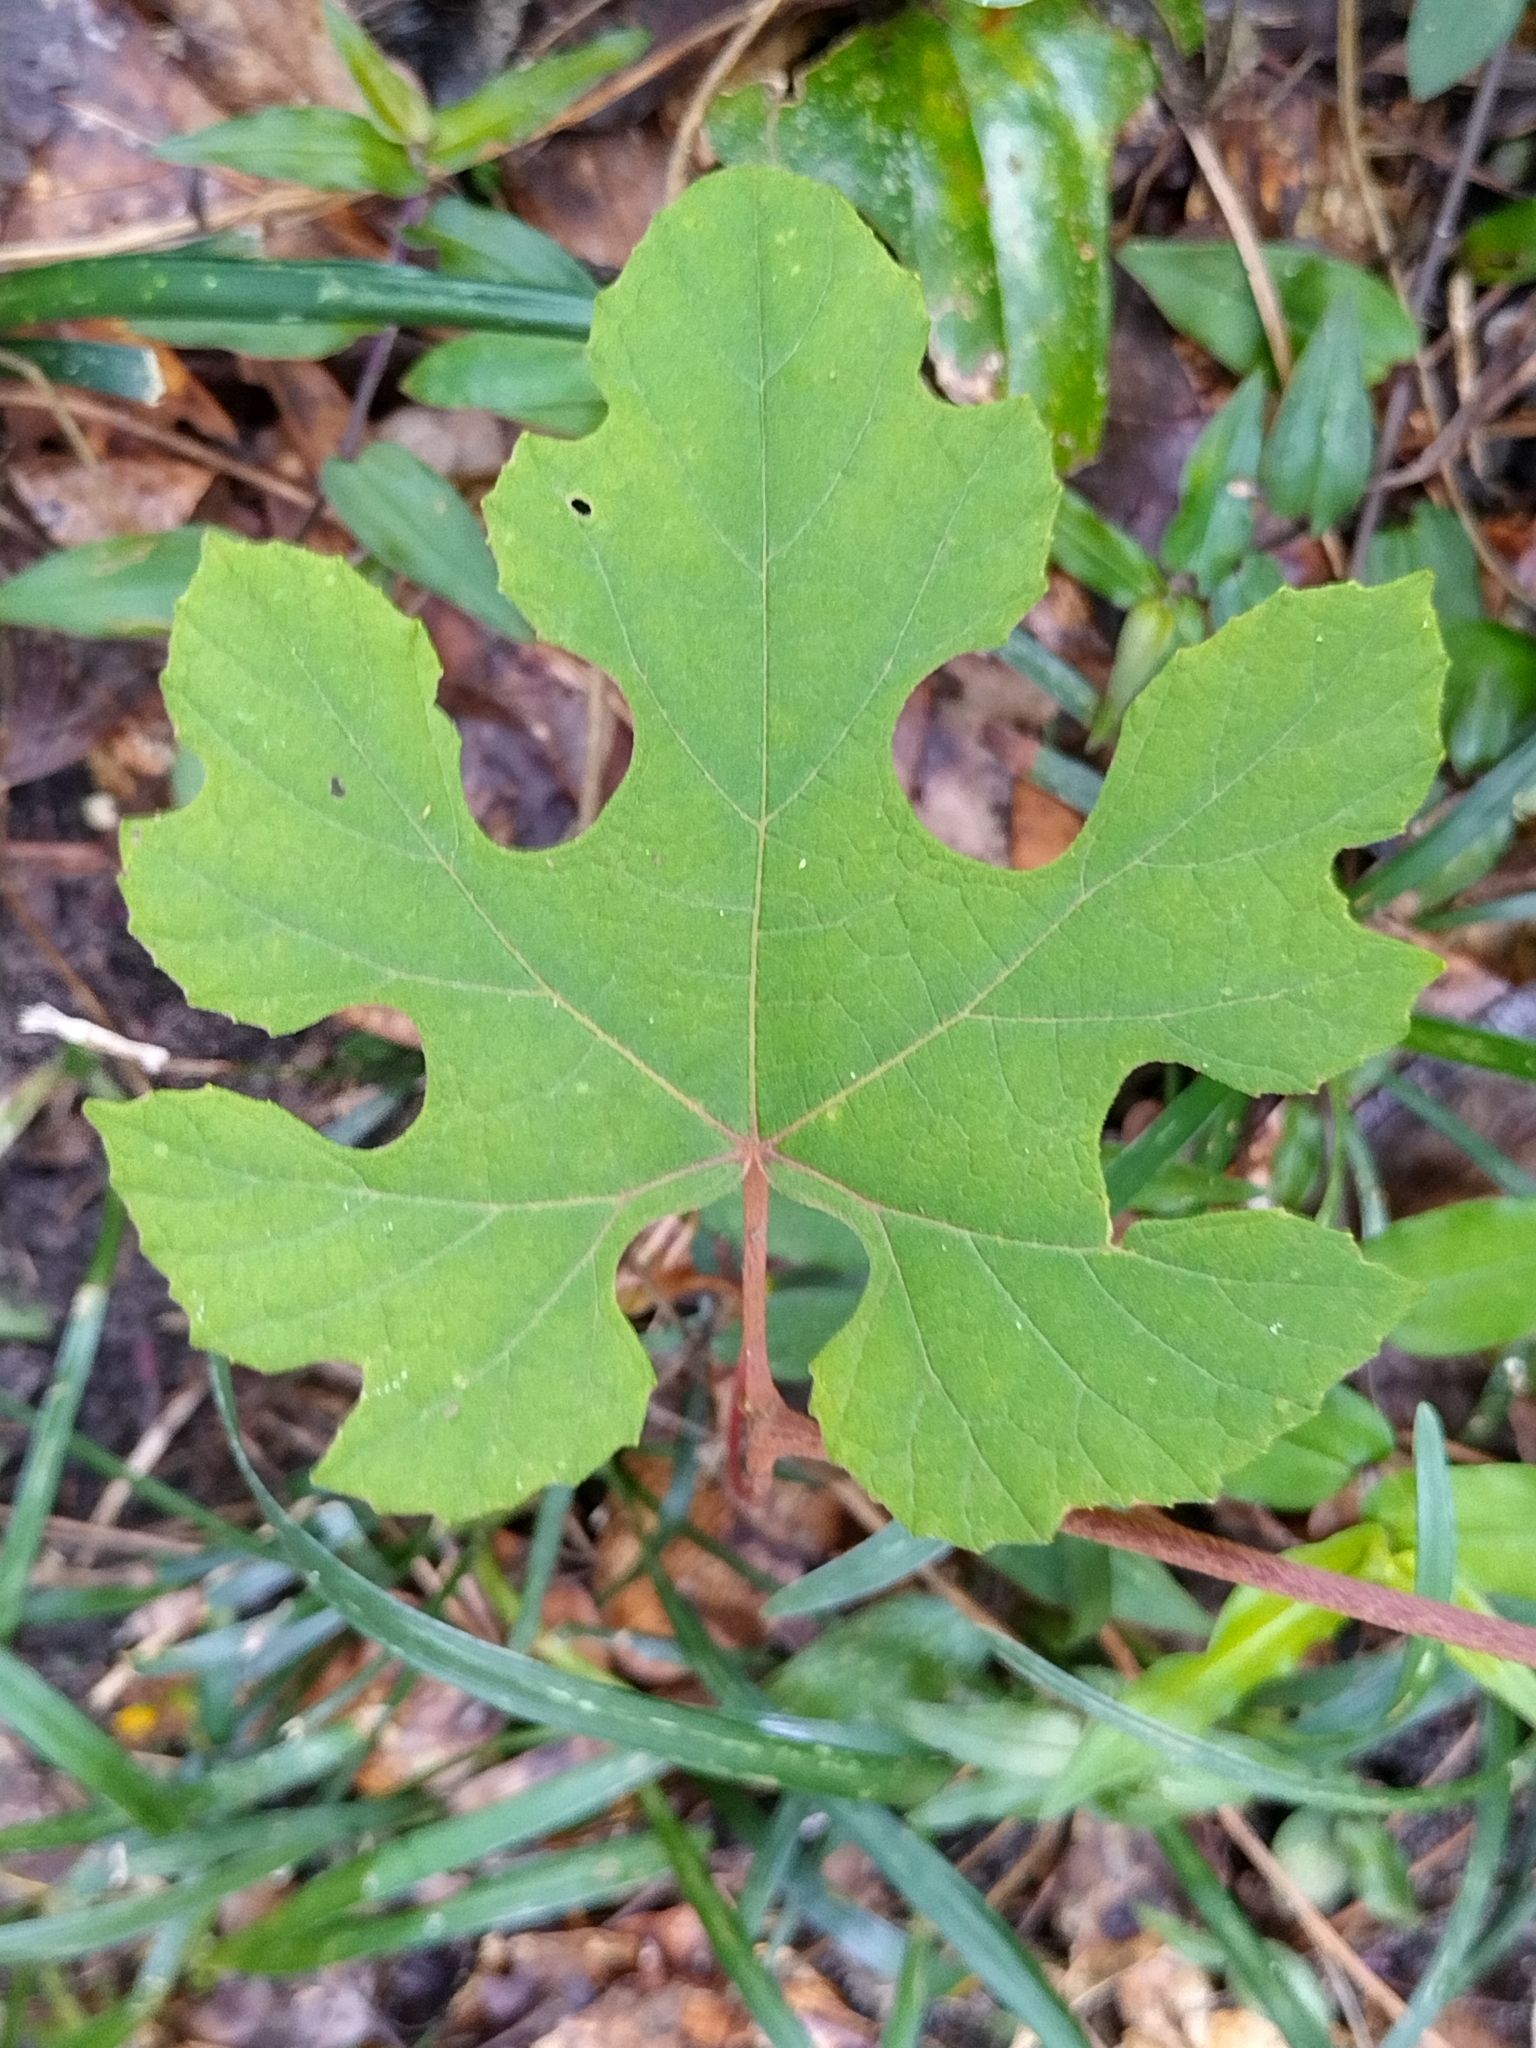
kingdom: Plantae
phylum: Tracheophyta
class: Magnoliopsida
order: Vitales
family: Vitaceae
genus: Vitis
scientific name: Vitis aestivalis
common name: Pigeon grape
